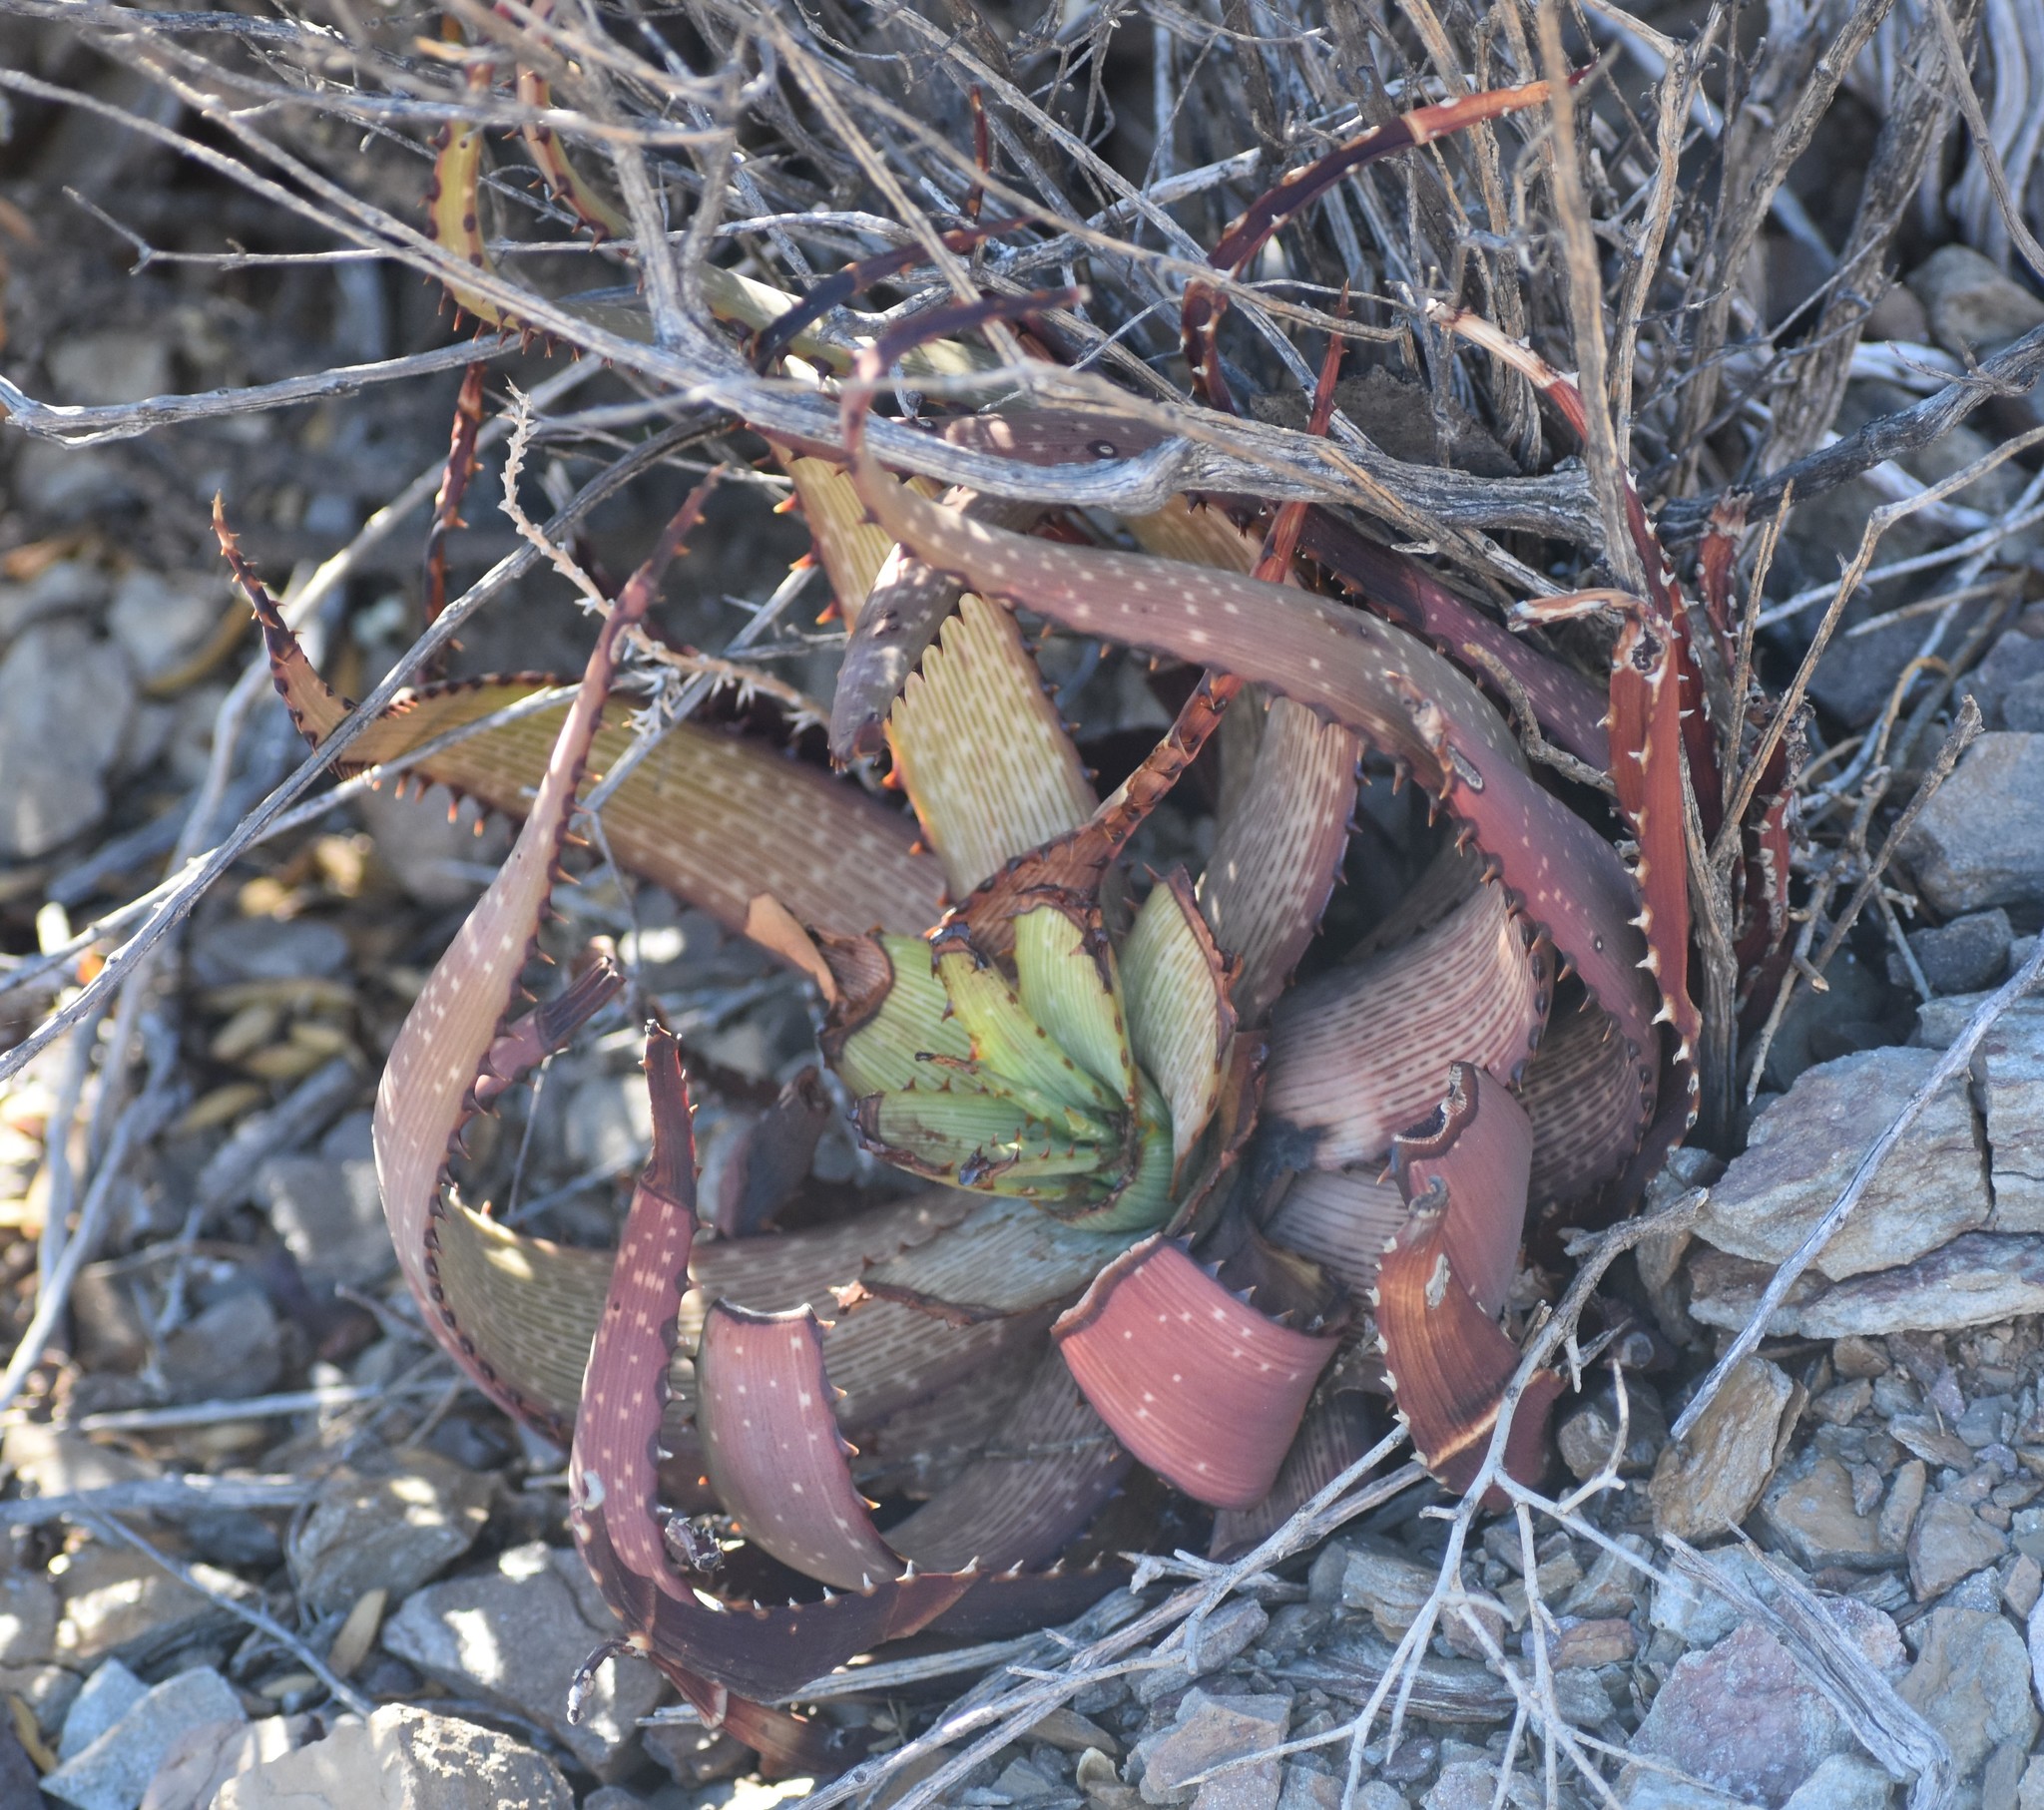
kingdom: Plantae
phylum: Tracheophyta
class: Liliopsida
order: Asparagales
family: Asphodelaceae
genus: Aloe
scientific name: Aloe microstigma
